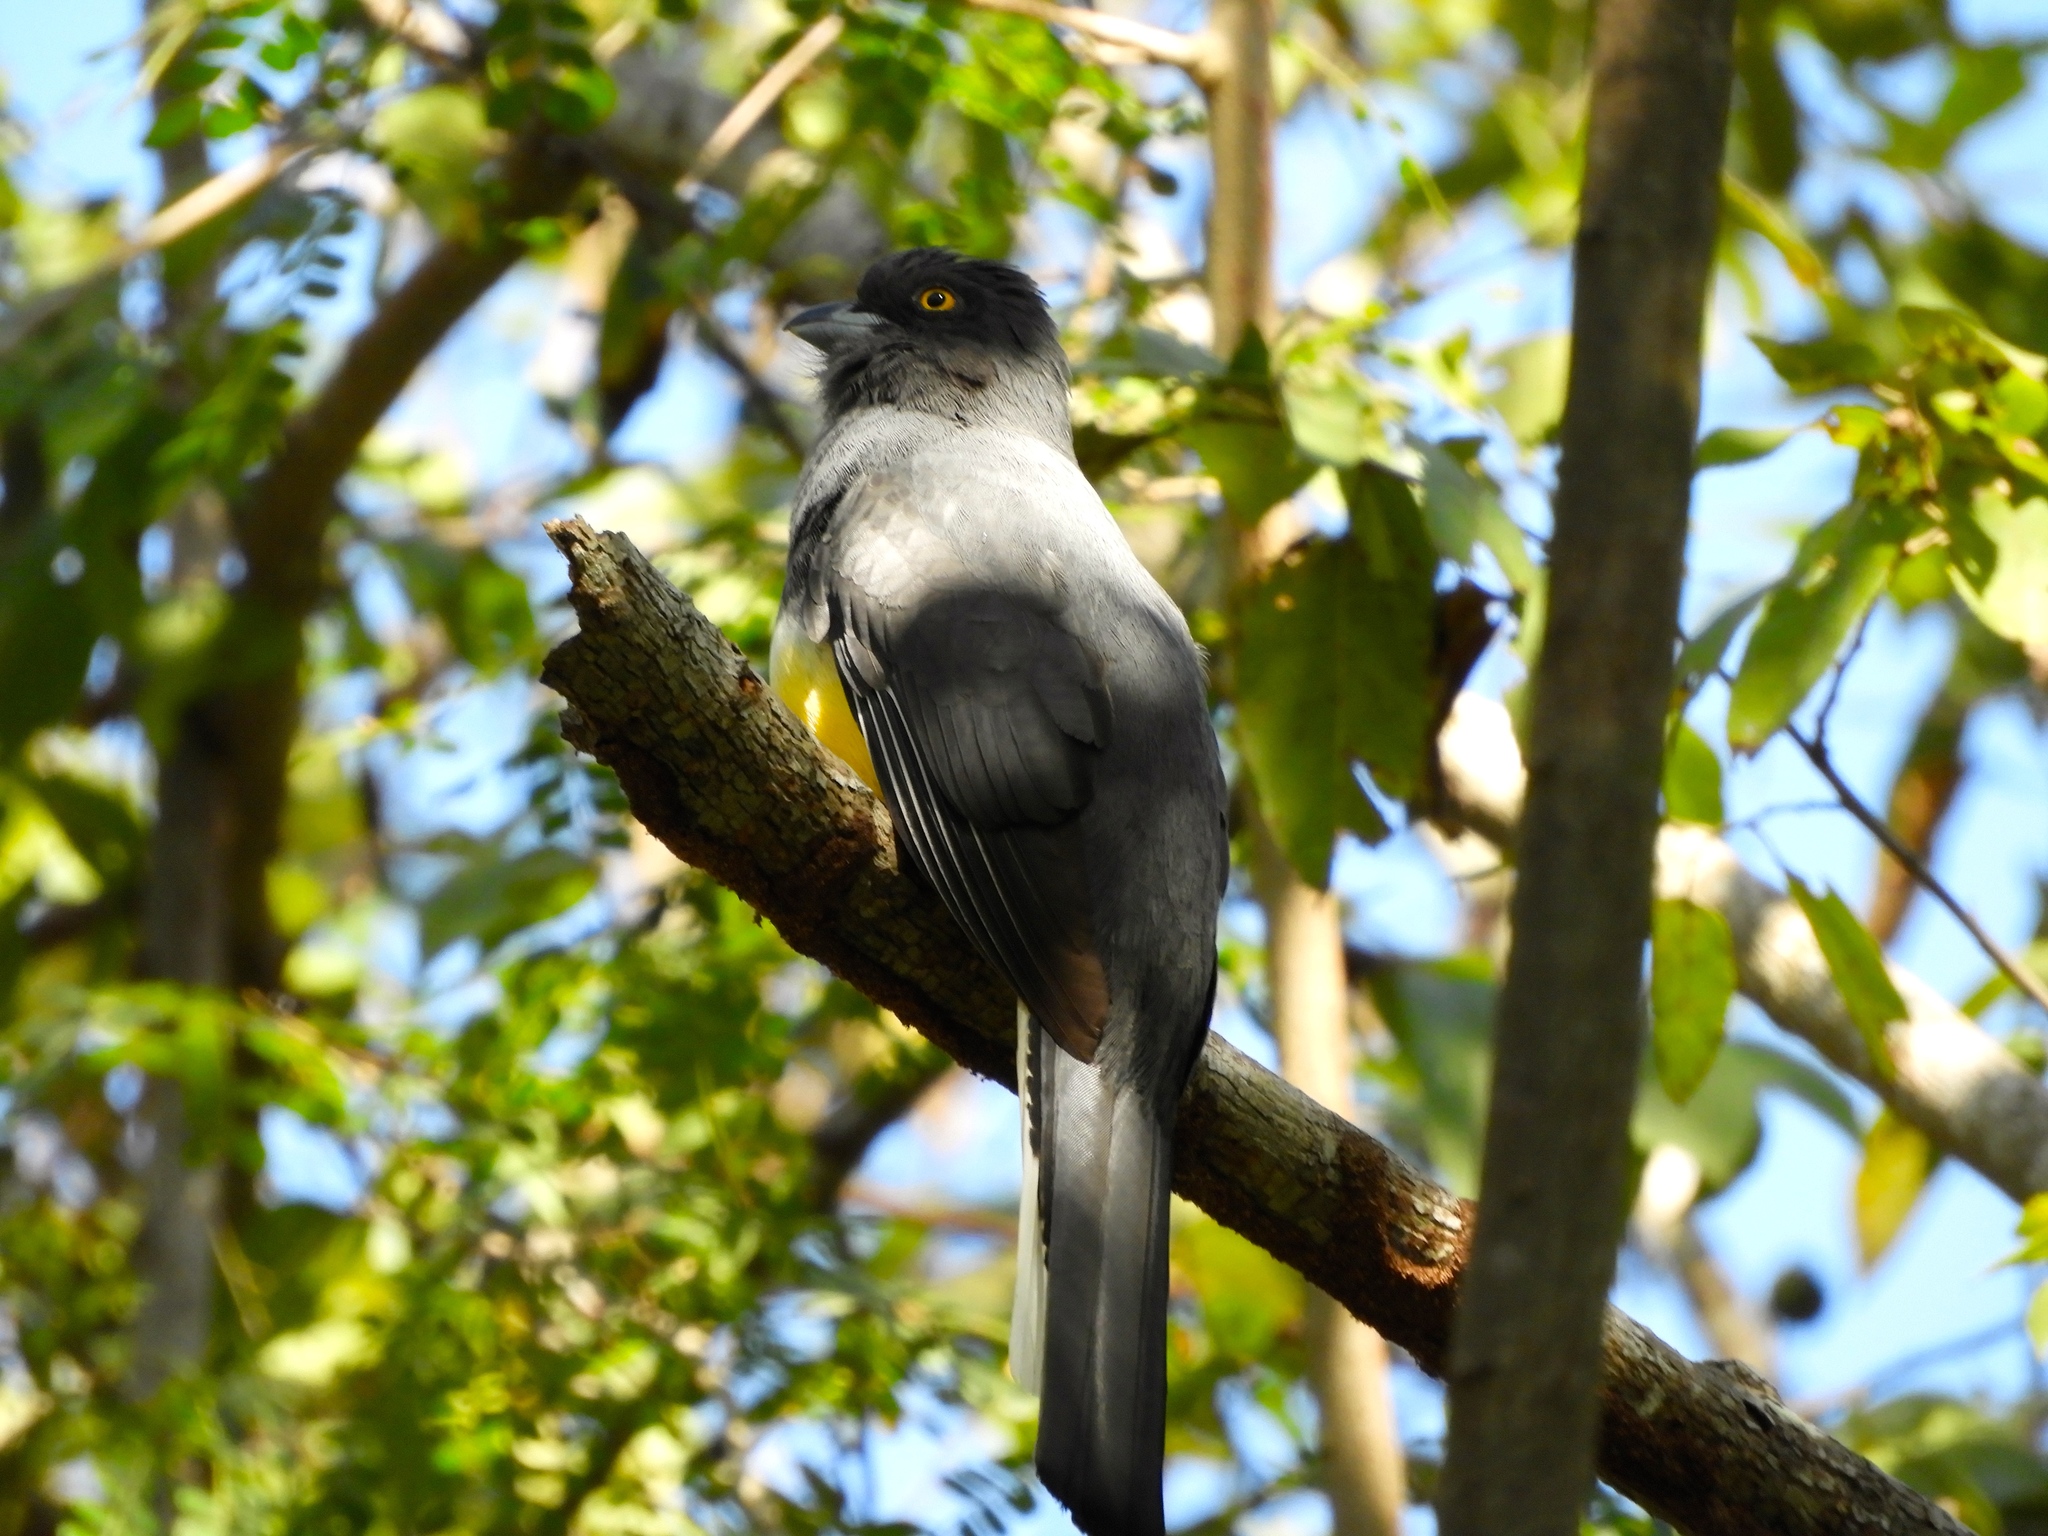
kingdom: Animalia
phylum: Chordata
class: Aves
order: Trogoniformes
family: Trogonidae
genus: Trogon
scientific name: Trogon citreolus
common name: Citreoline trogon
